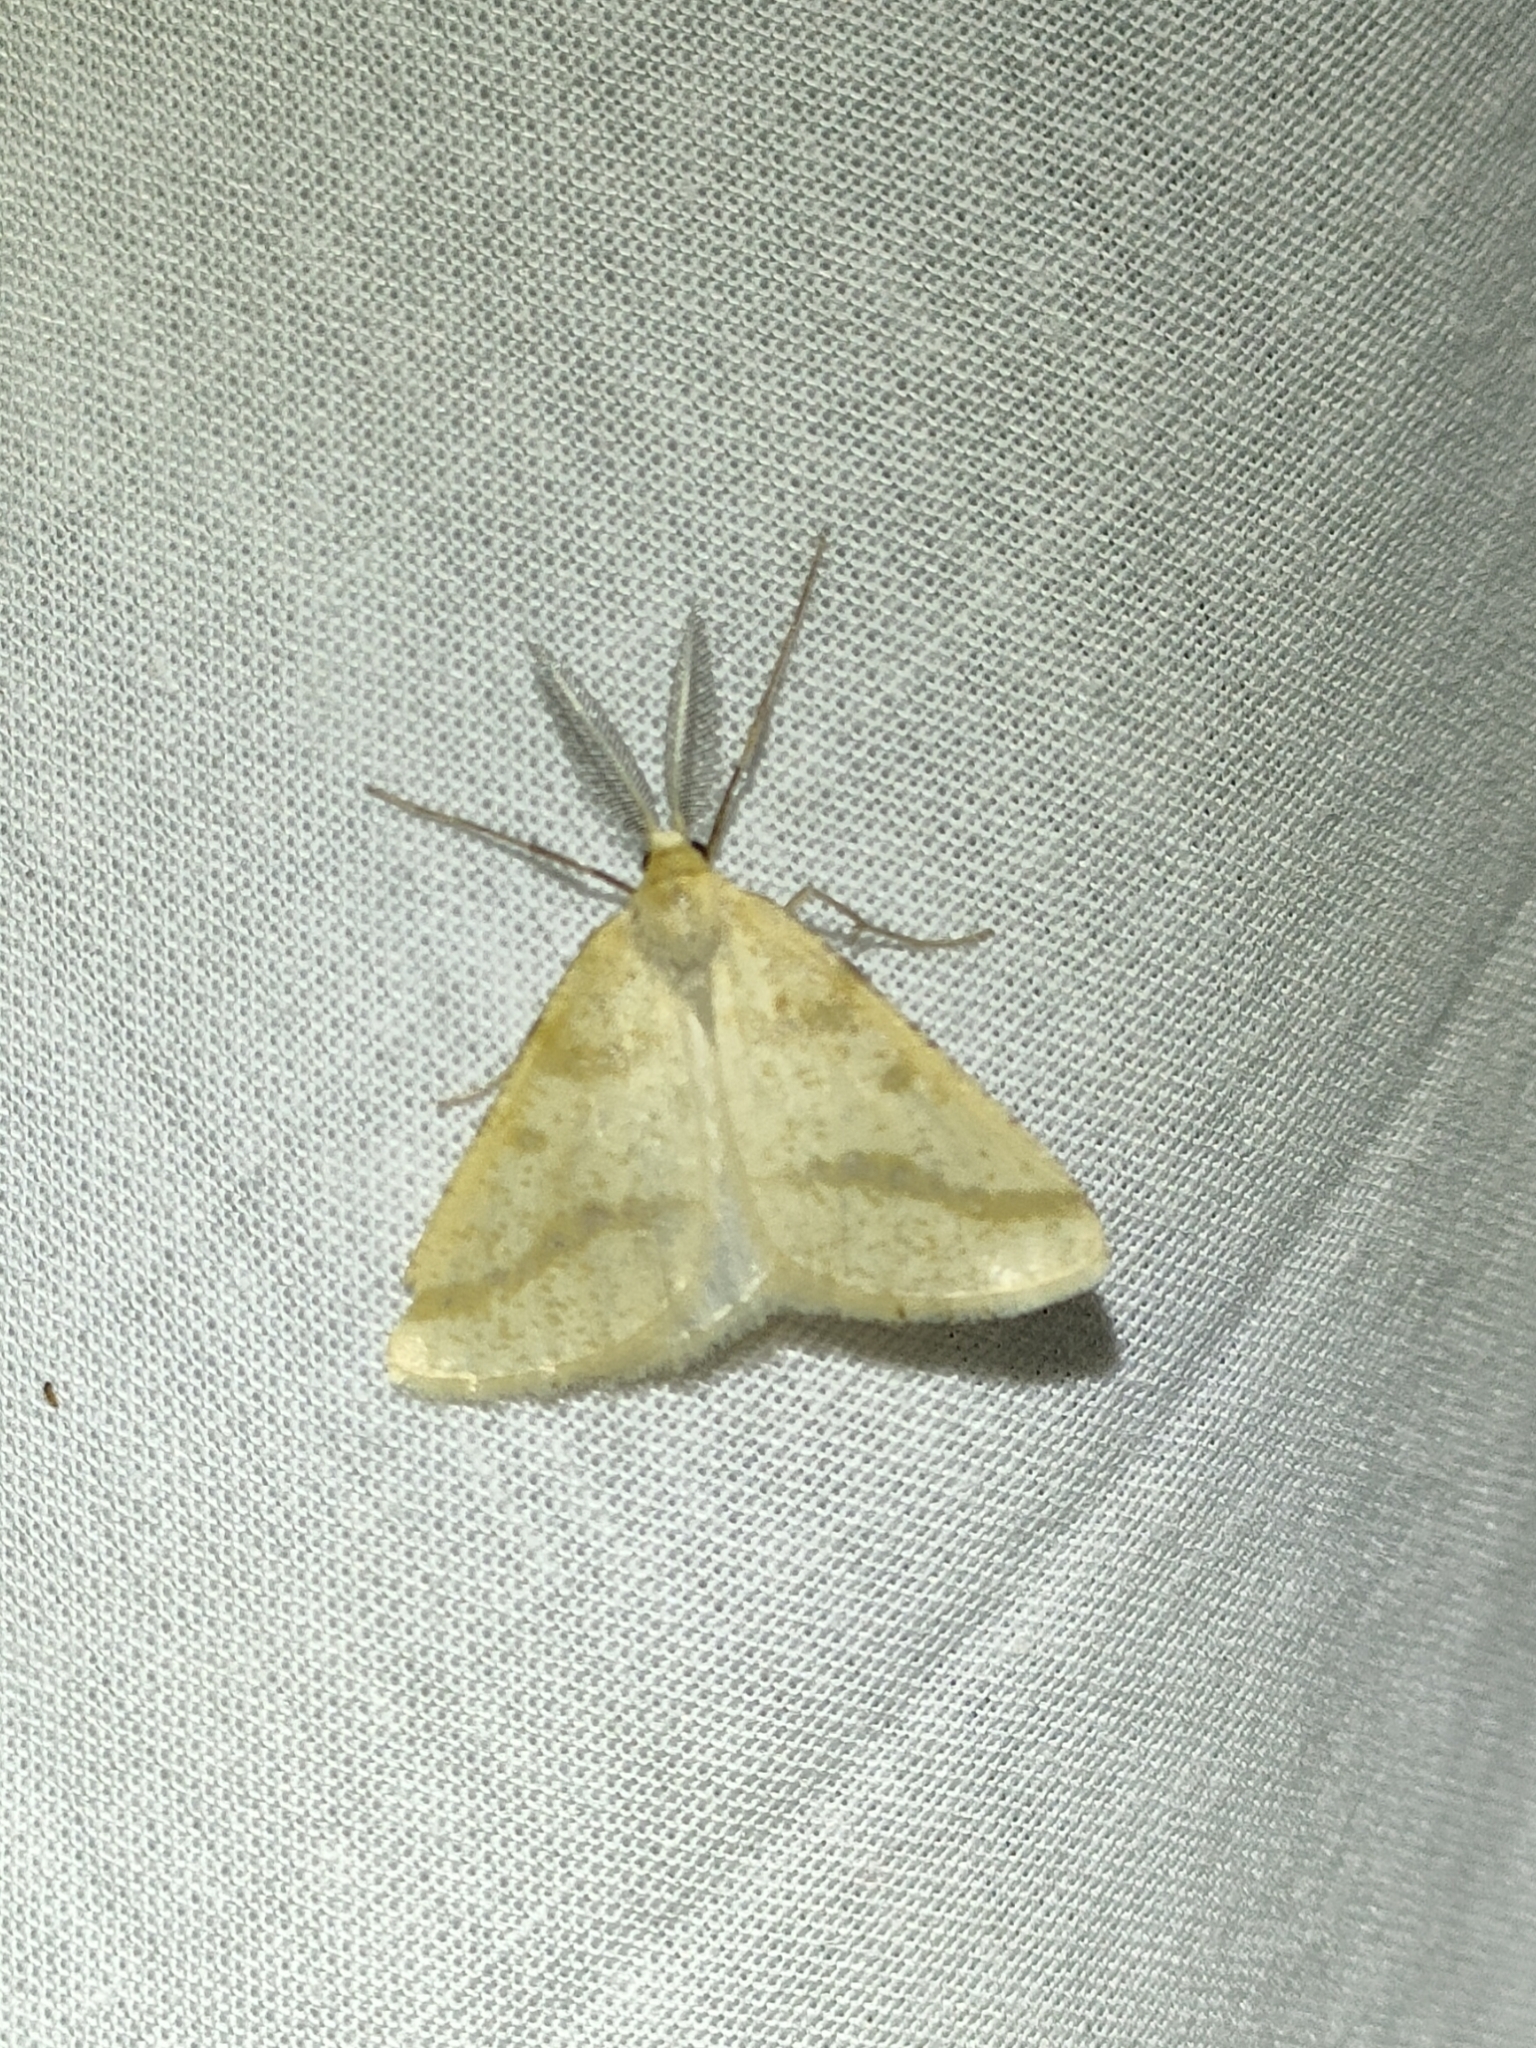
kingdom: Animalia
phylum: Arthropoda
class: Insecta
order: Lepidoptera
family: Geometridae
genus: Aspitates
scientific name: Aspitates ochrearia
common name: Yellow belle
